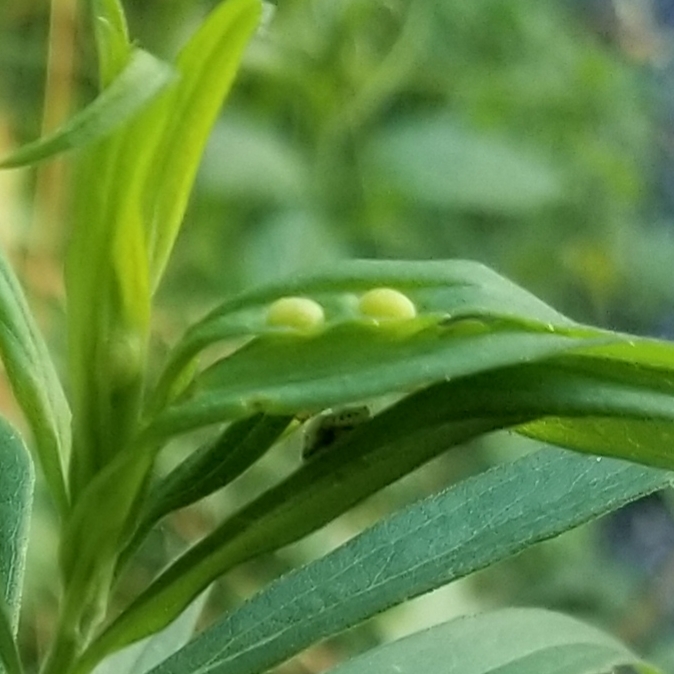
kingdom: Animalia
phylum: Arthropoda
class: Insecta
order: Diptera
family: Cecidomyiidae
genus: Asphondylia
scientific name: Asphondylia solidaginis
